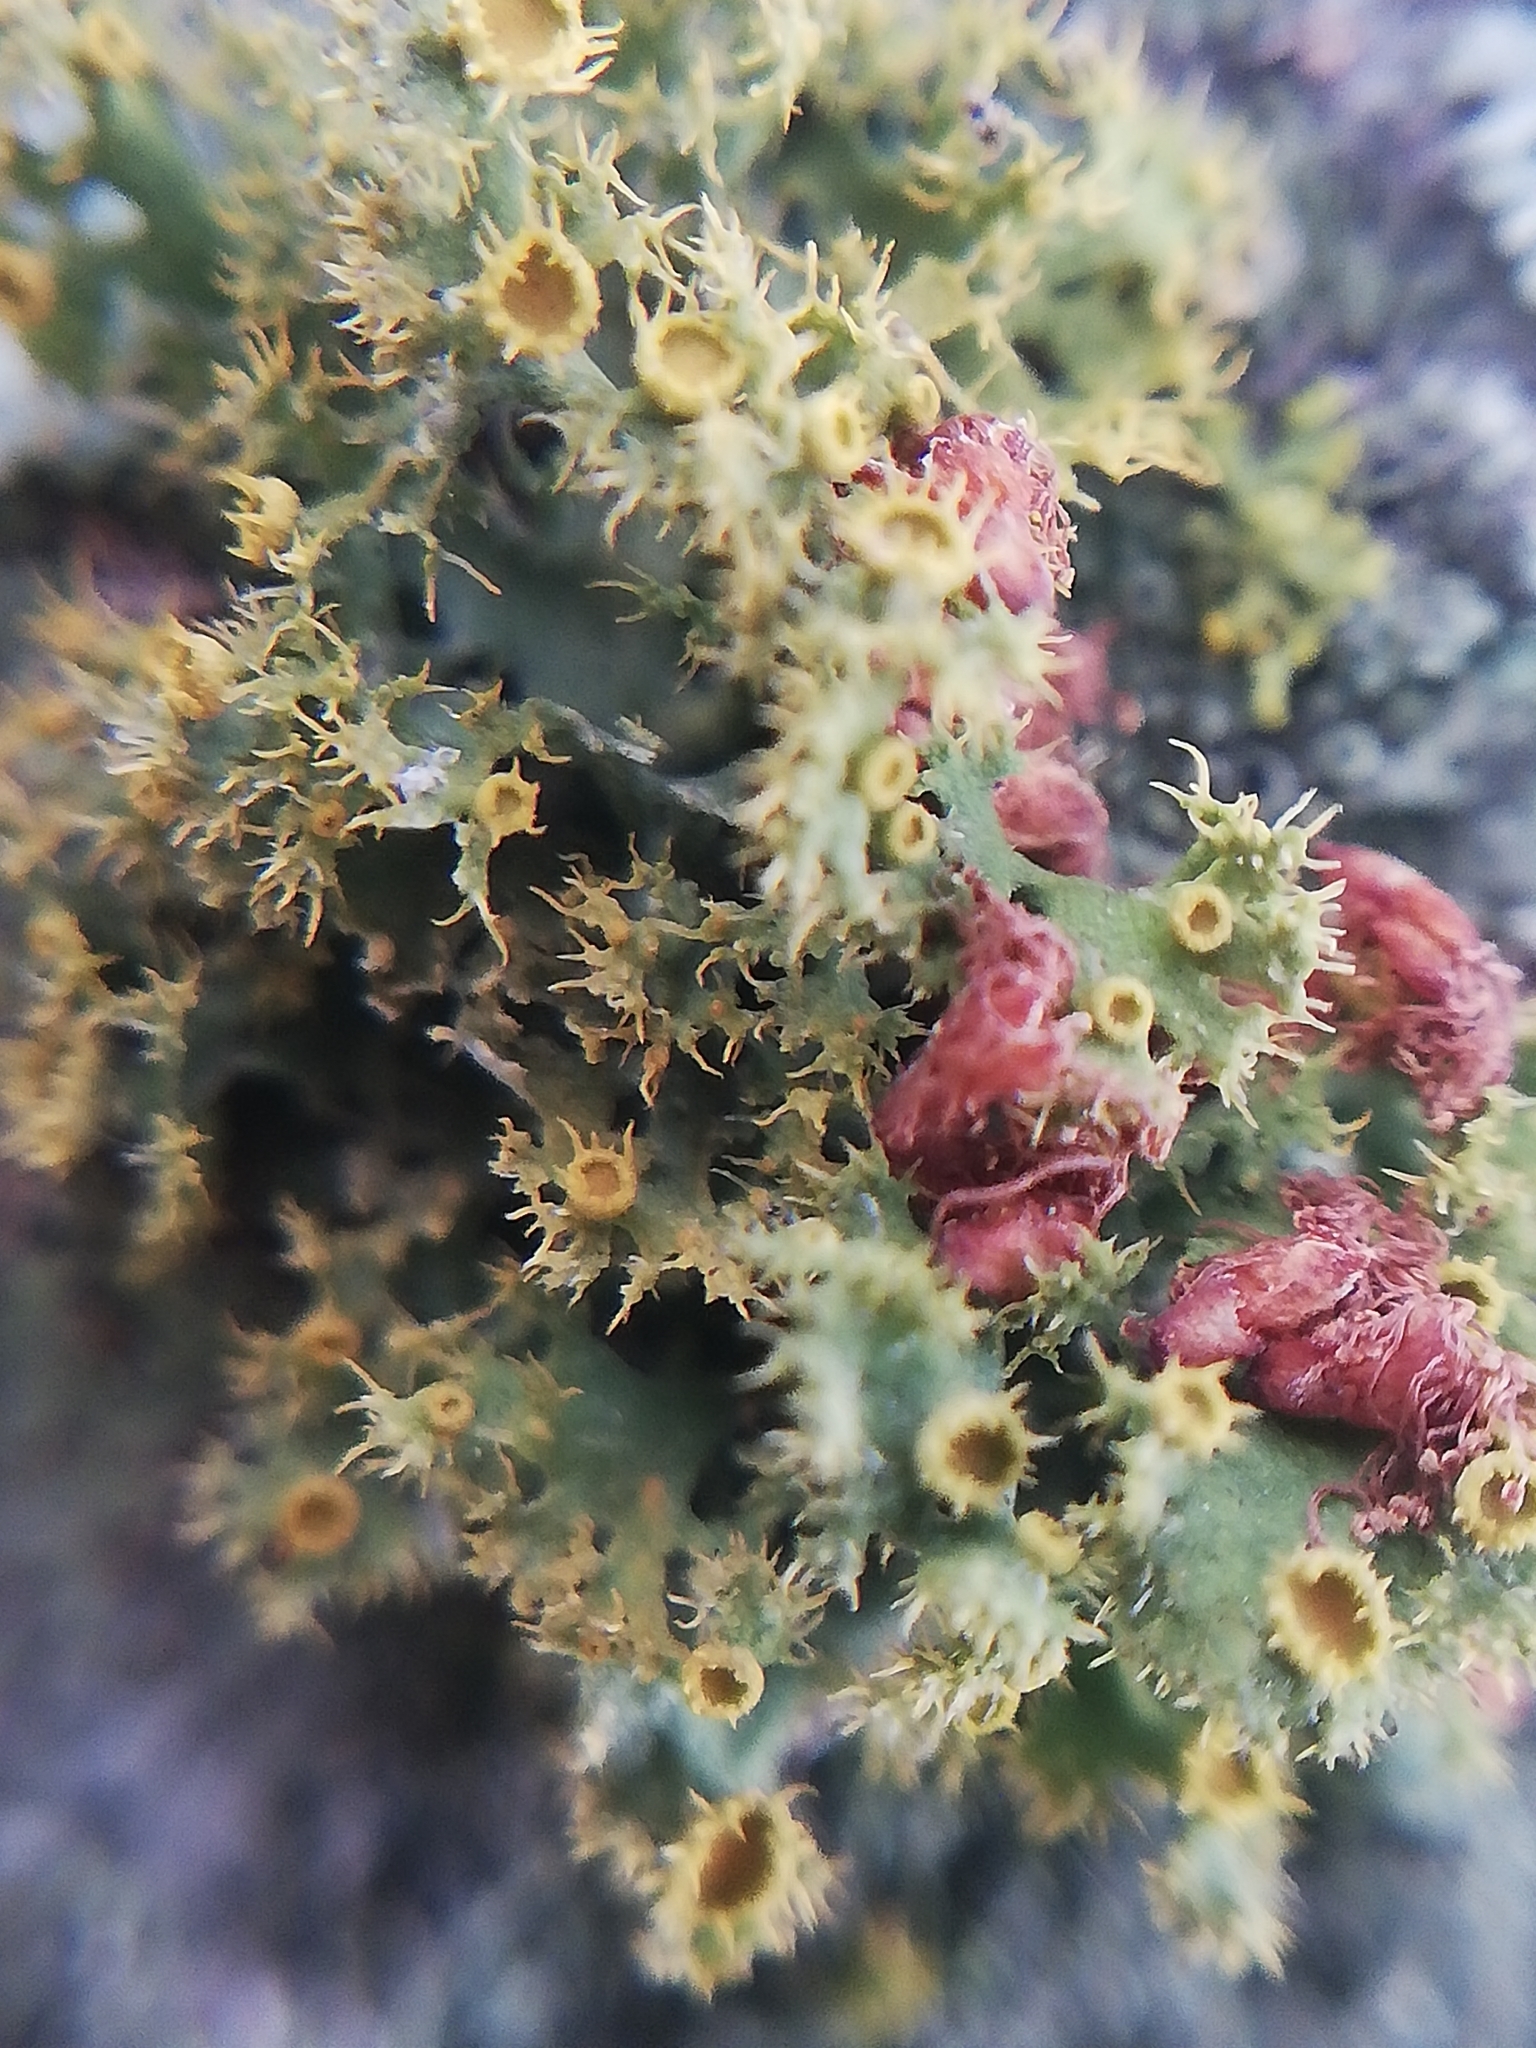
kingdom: Fungi
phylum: Ascomycota
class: Lecanoromycetes
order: Teloschistales
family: Teloschistaceae
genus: Niorma
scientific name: Niorma chrysophthalma
